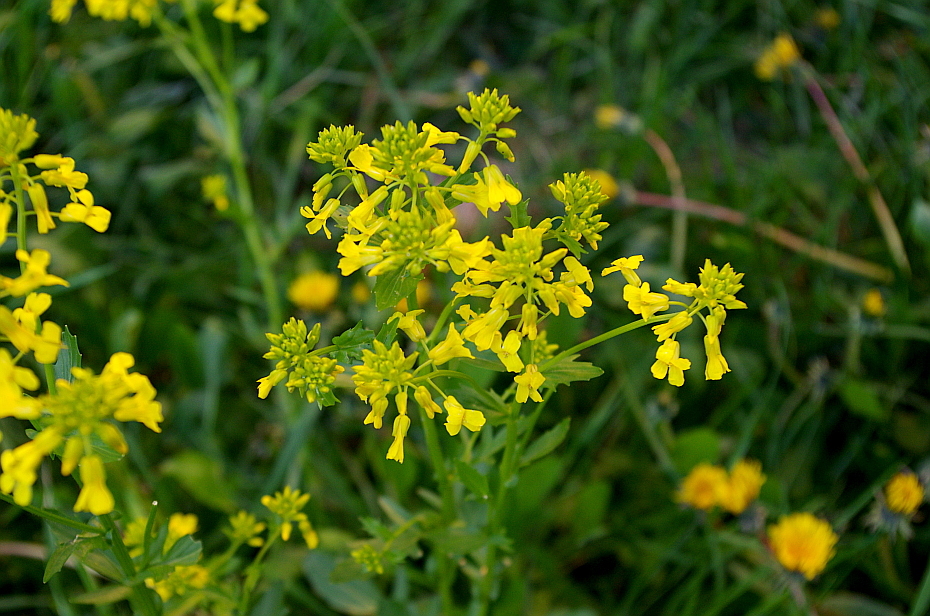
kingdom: Plantae
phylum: Tracheophyta
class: Magnoliopsida
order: Brassicales
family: Brassicaceae
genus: Barbarea
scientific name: Barbarea vulgaris
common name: Cressy-greens
